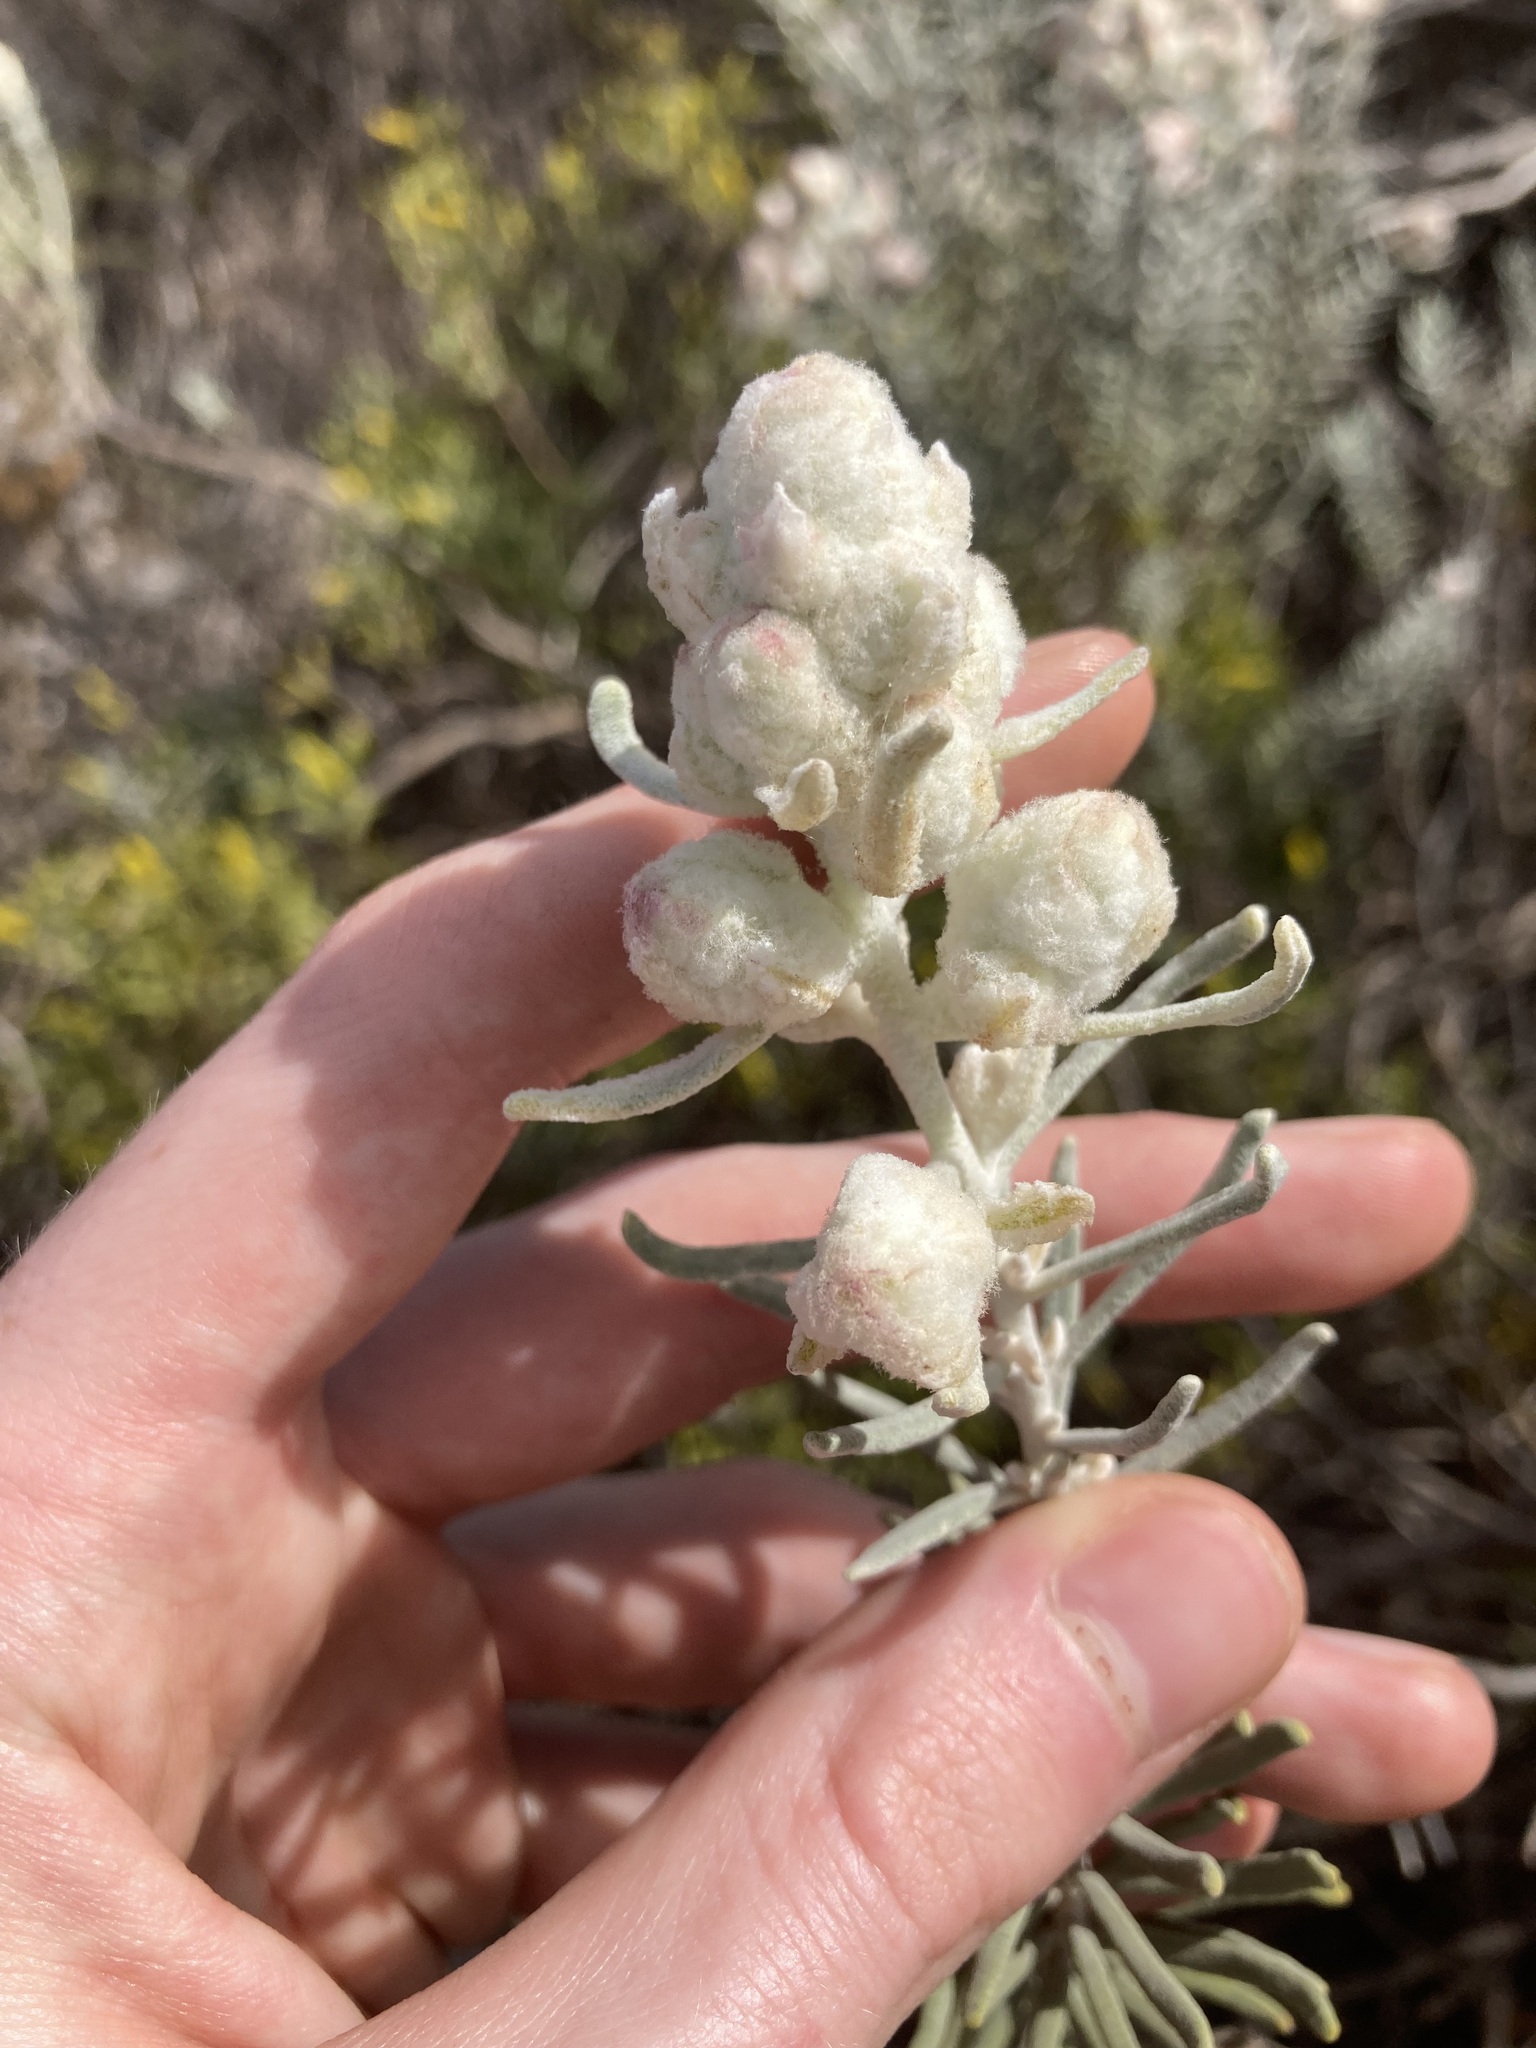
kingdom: Plantae
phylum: Tracheophyta
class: Magnoliopsida
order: Lamiales
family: Lamiaceae
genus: Lachnostachys
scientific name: Lachnostachys eriobotrya
